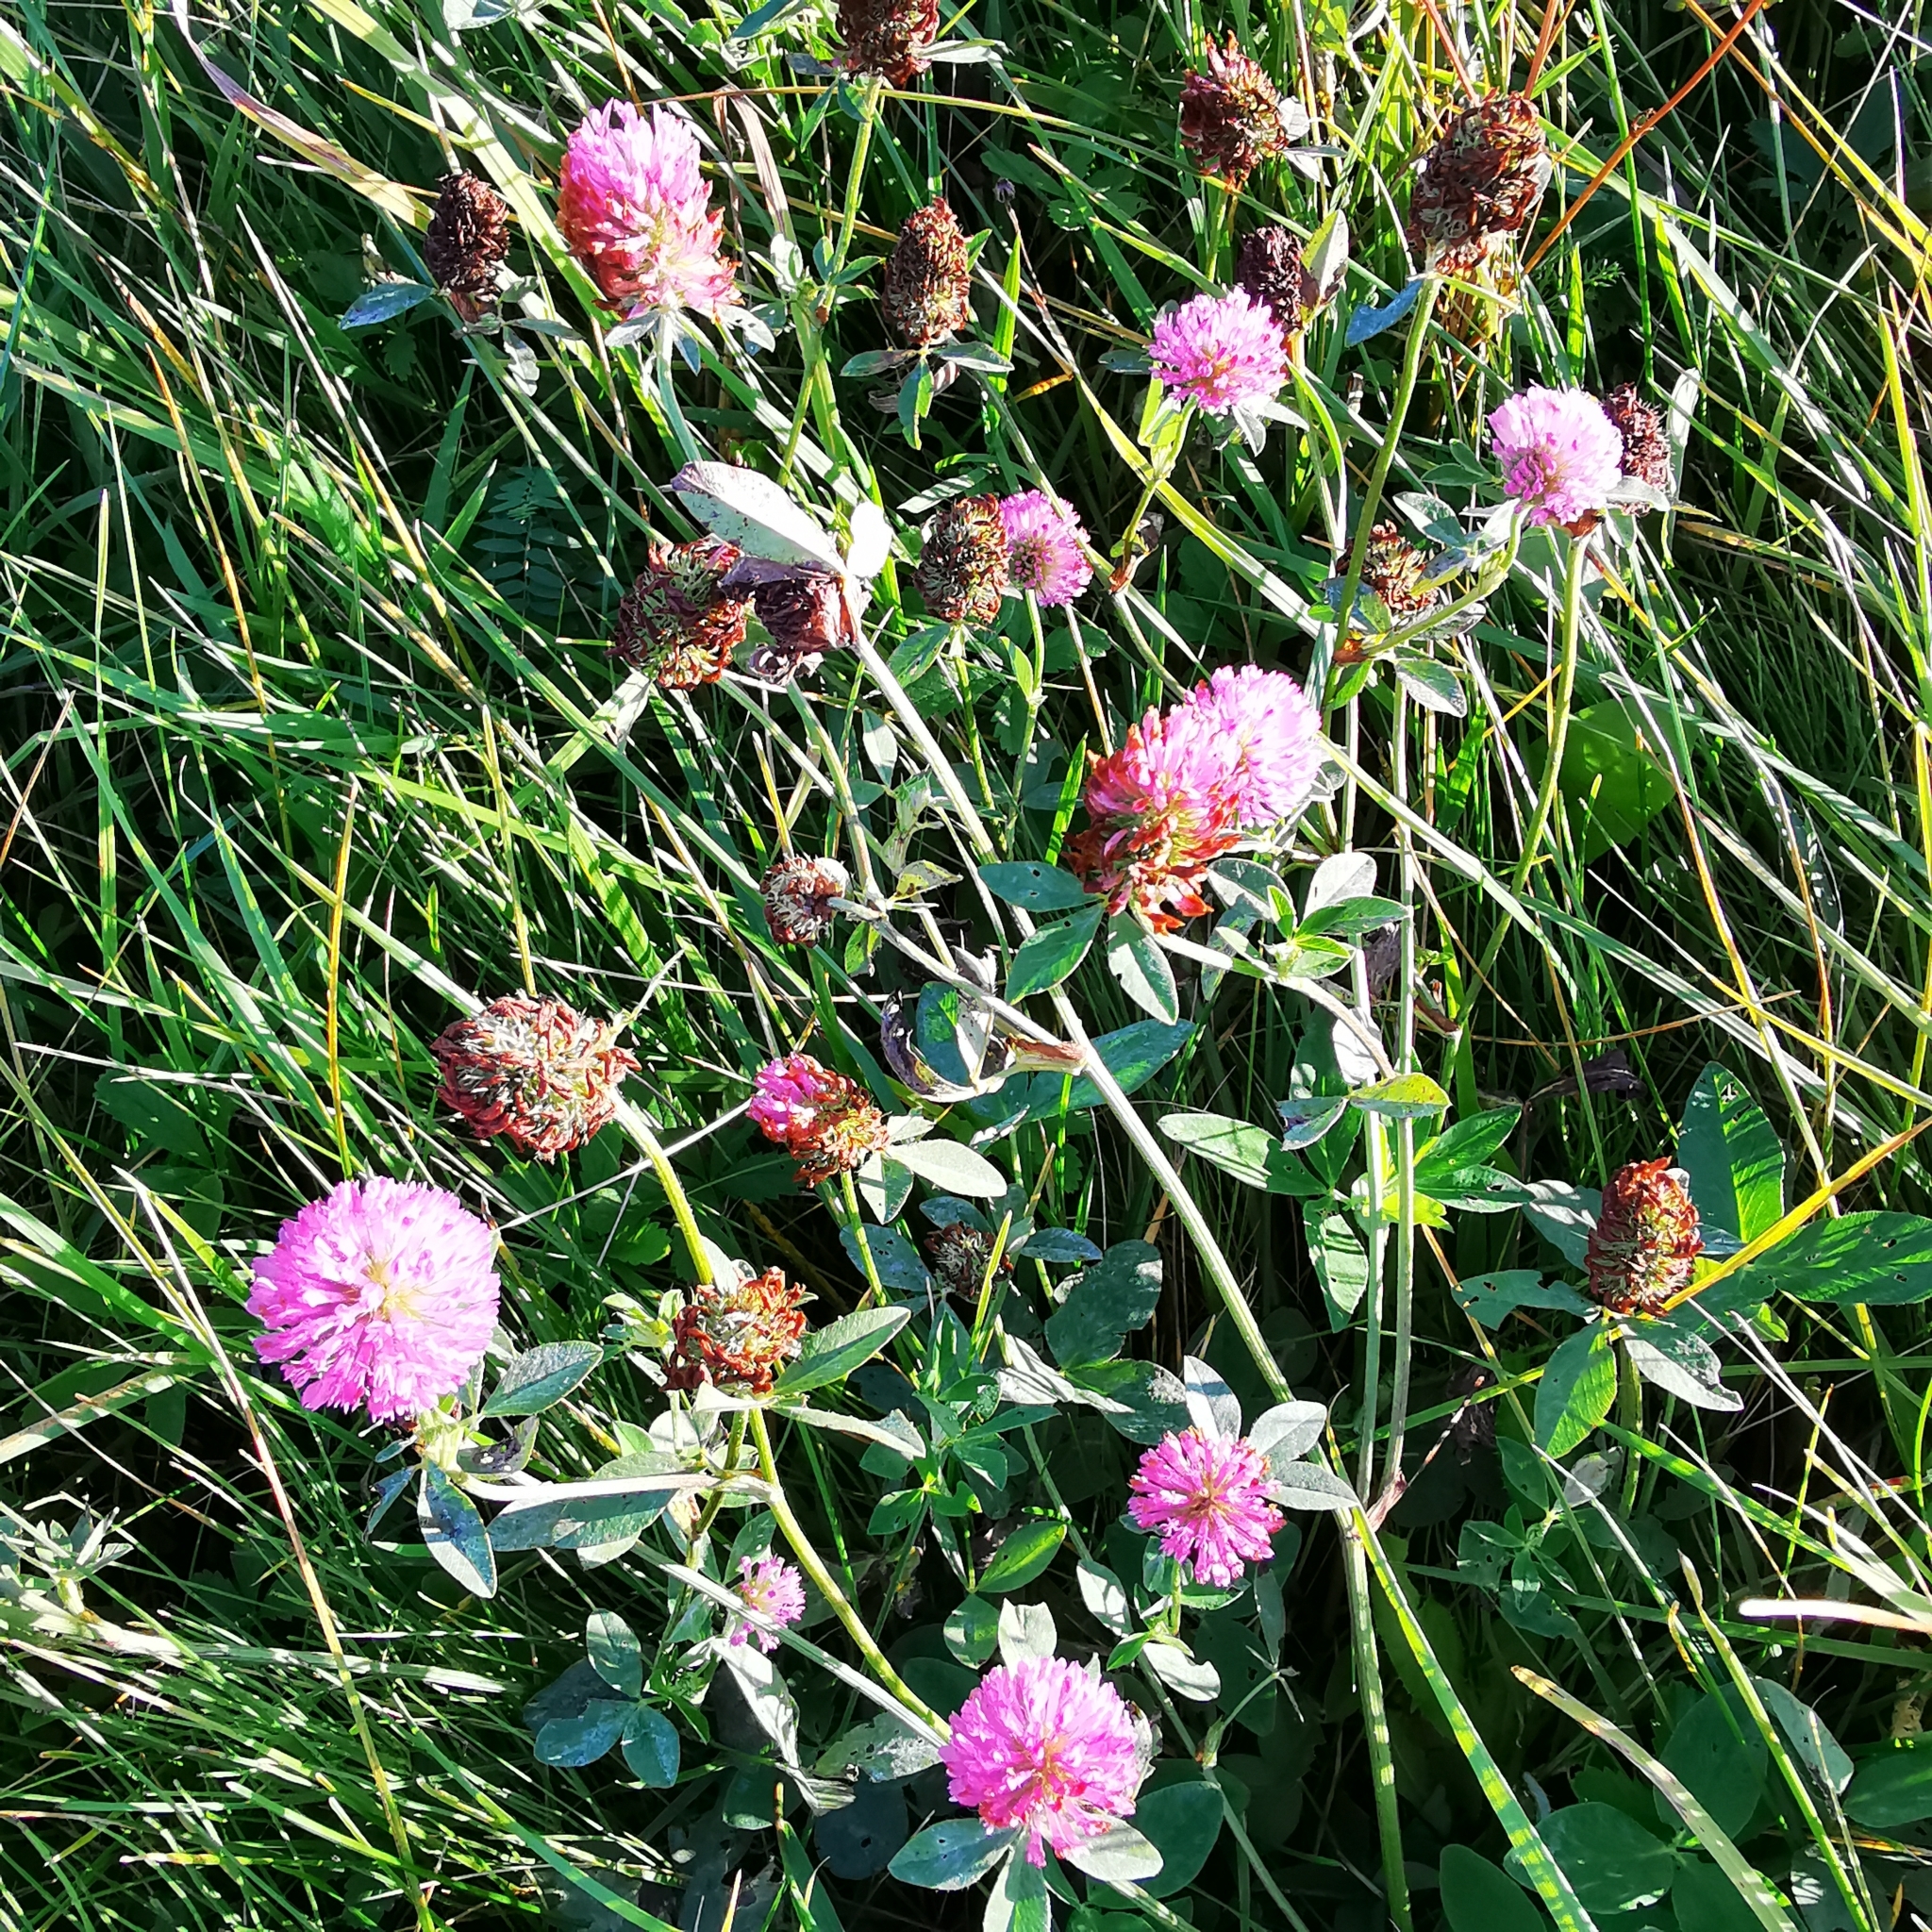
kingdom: Plantae
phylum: Tracheophyta
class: Magnoliopsida
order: Fabales
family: Fabaceae
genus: Trifolium
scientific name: Trifolium pratense
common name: Red clover
